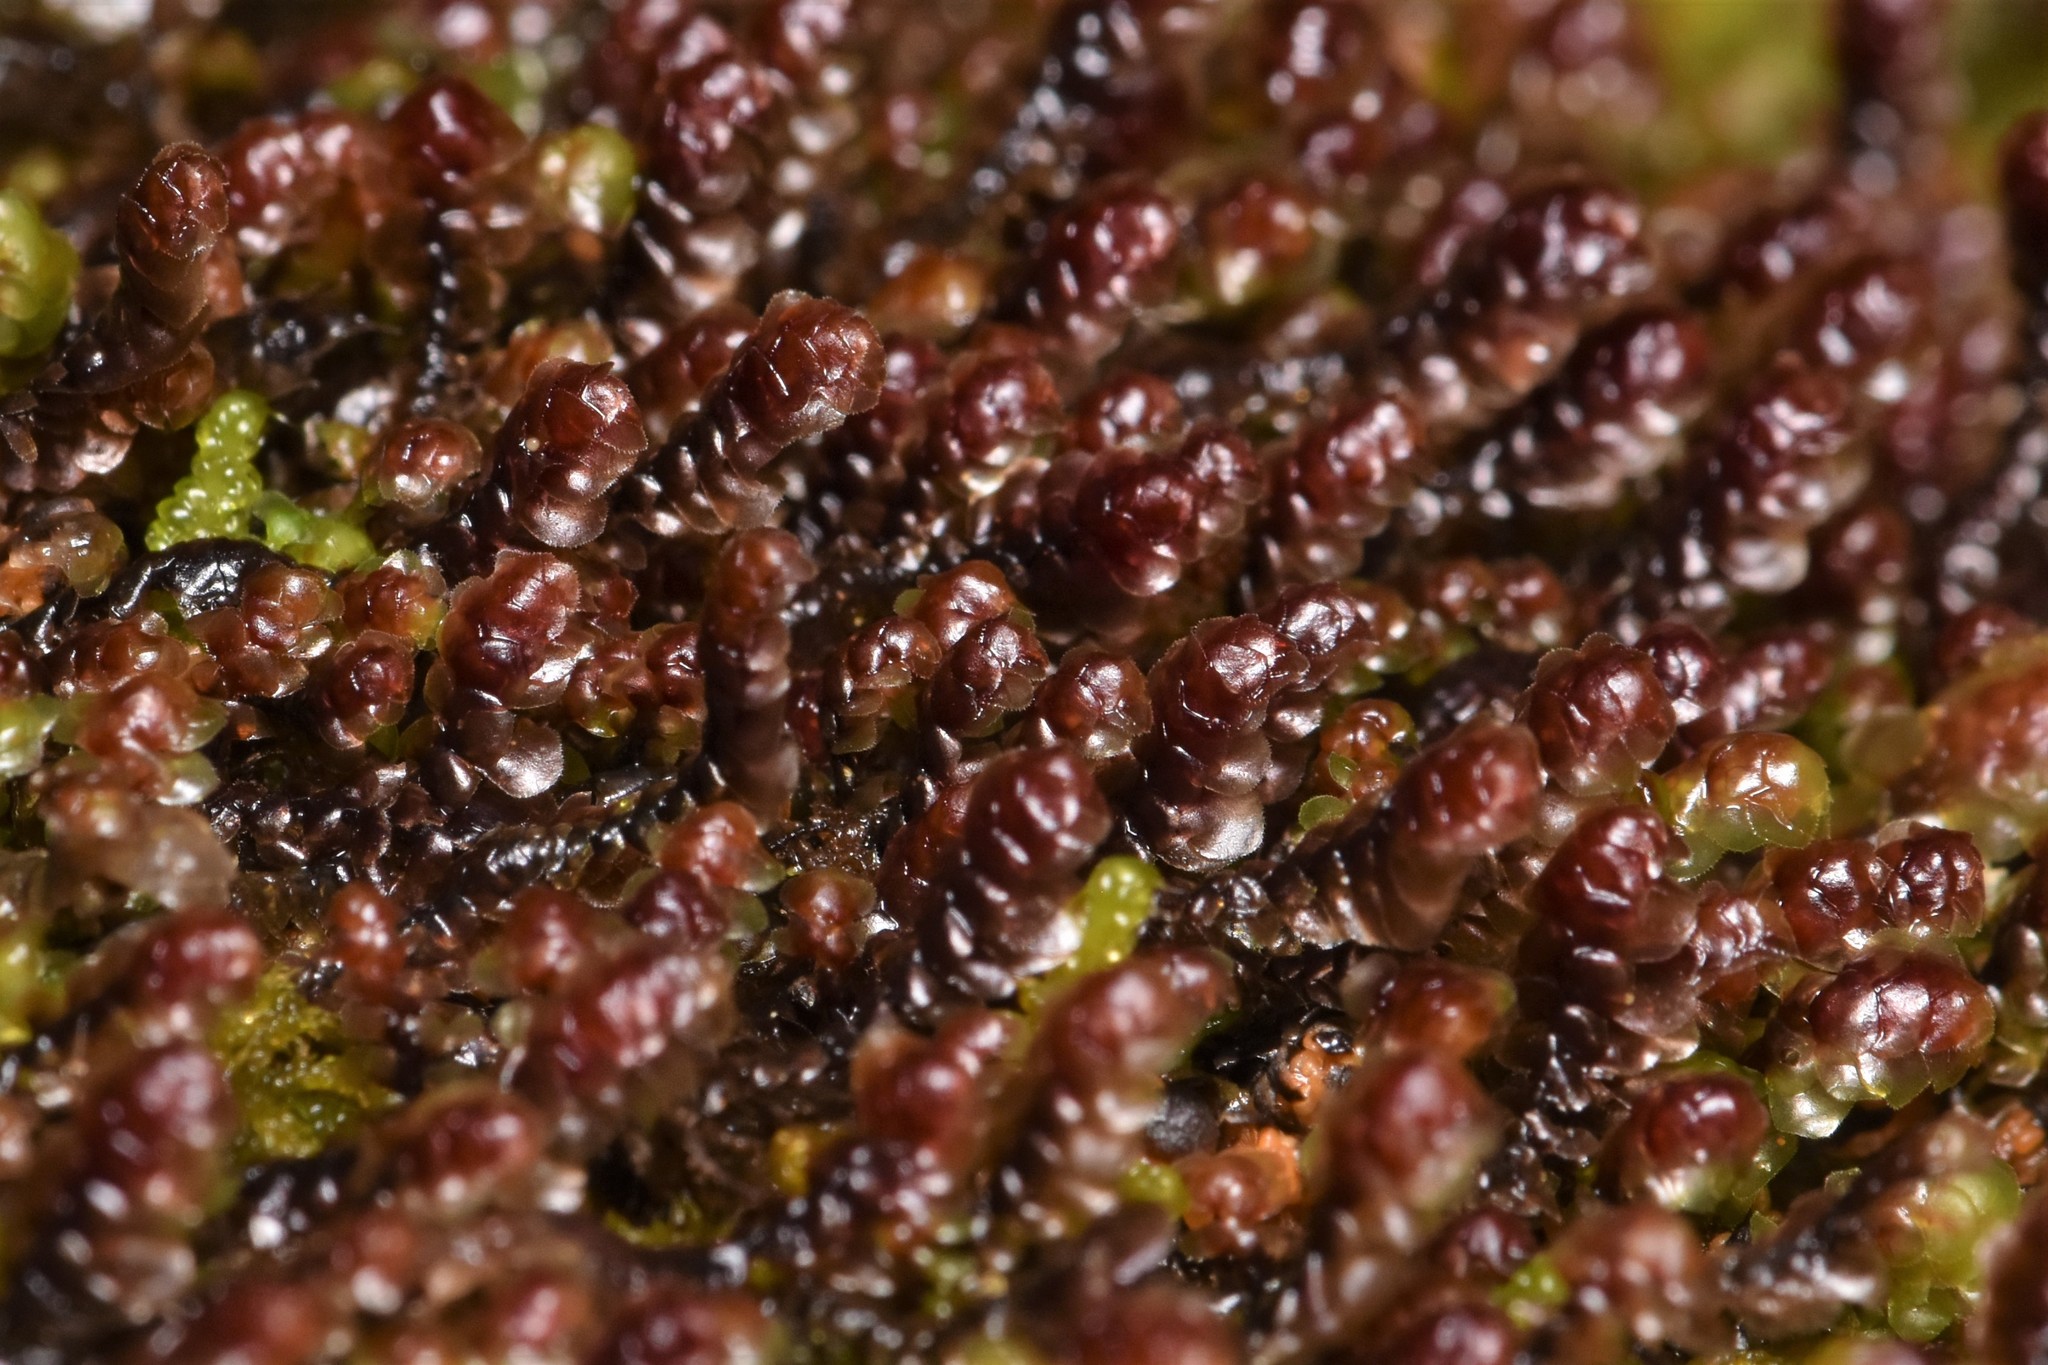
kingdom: Plantae
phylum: Marchantiophyta
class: Jungermanniopsida
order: Jungermanniales
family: Scapaniaceae
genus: Scapania
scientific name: Scapania americana
